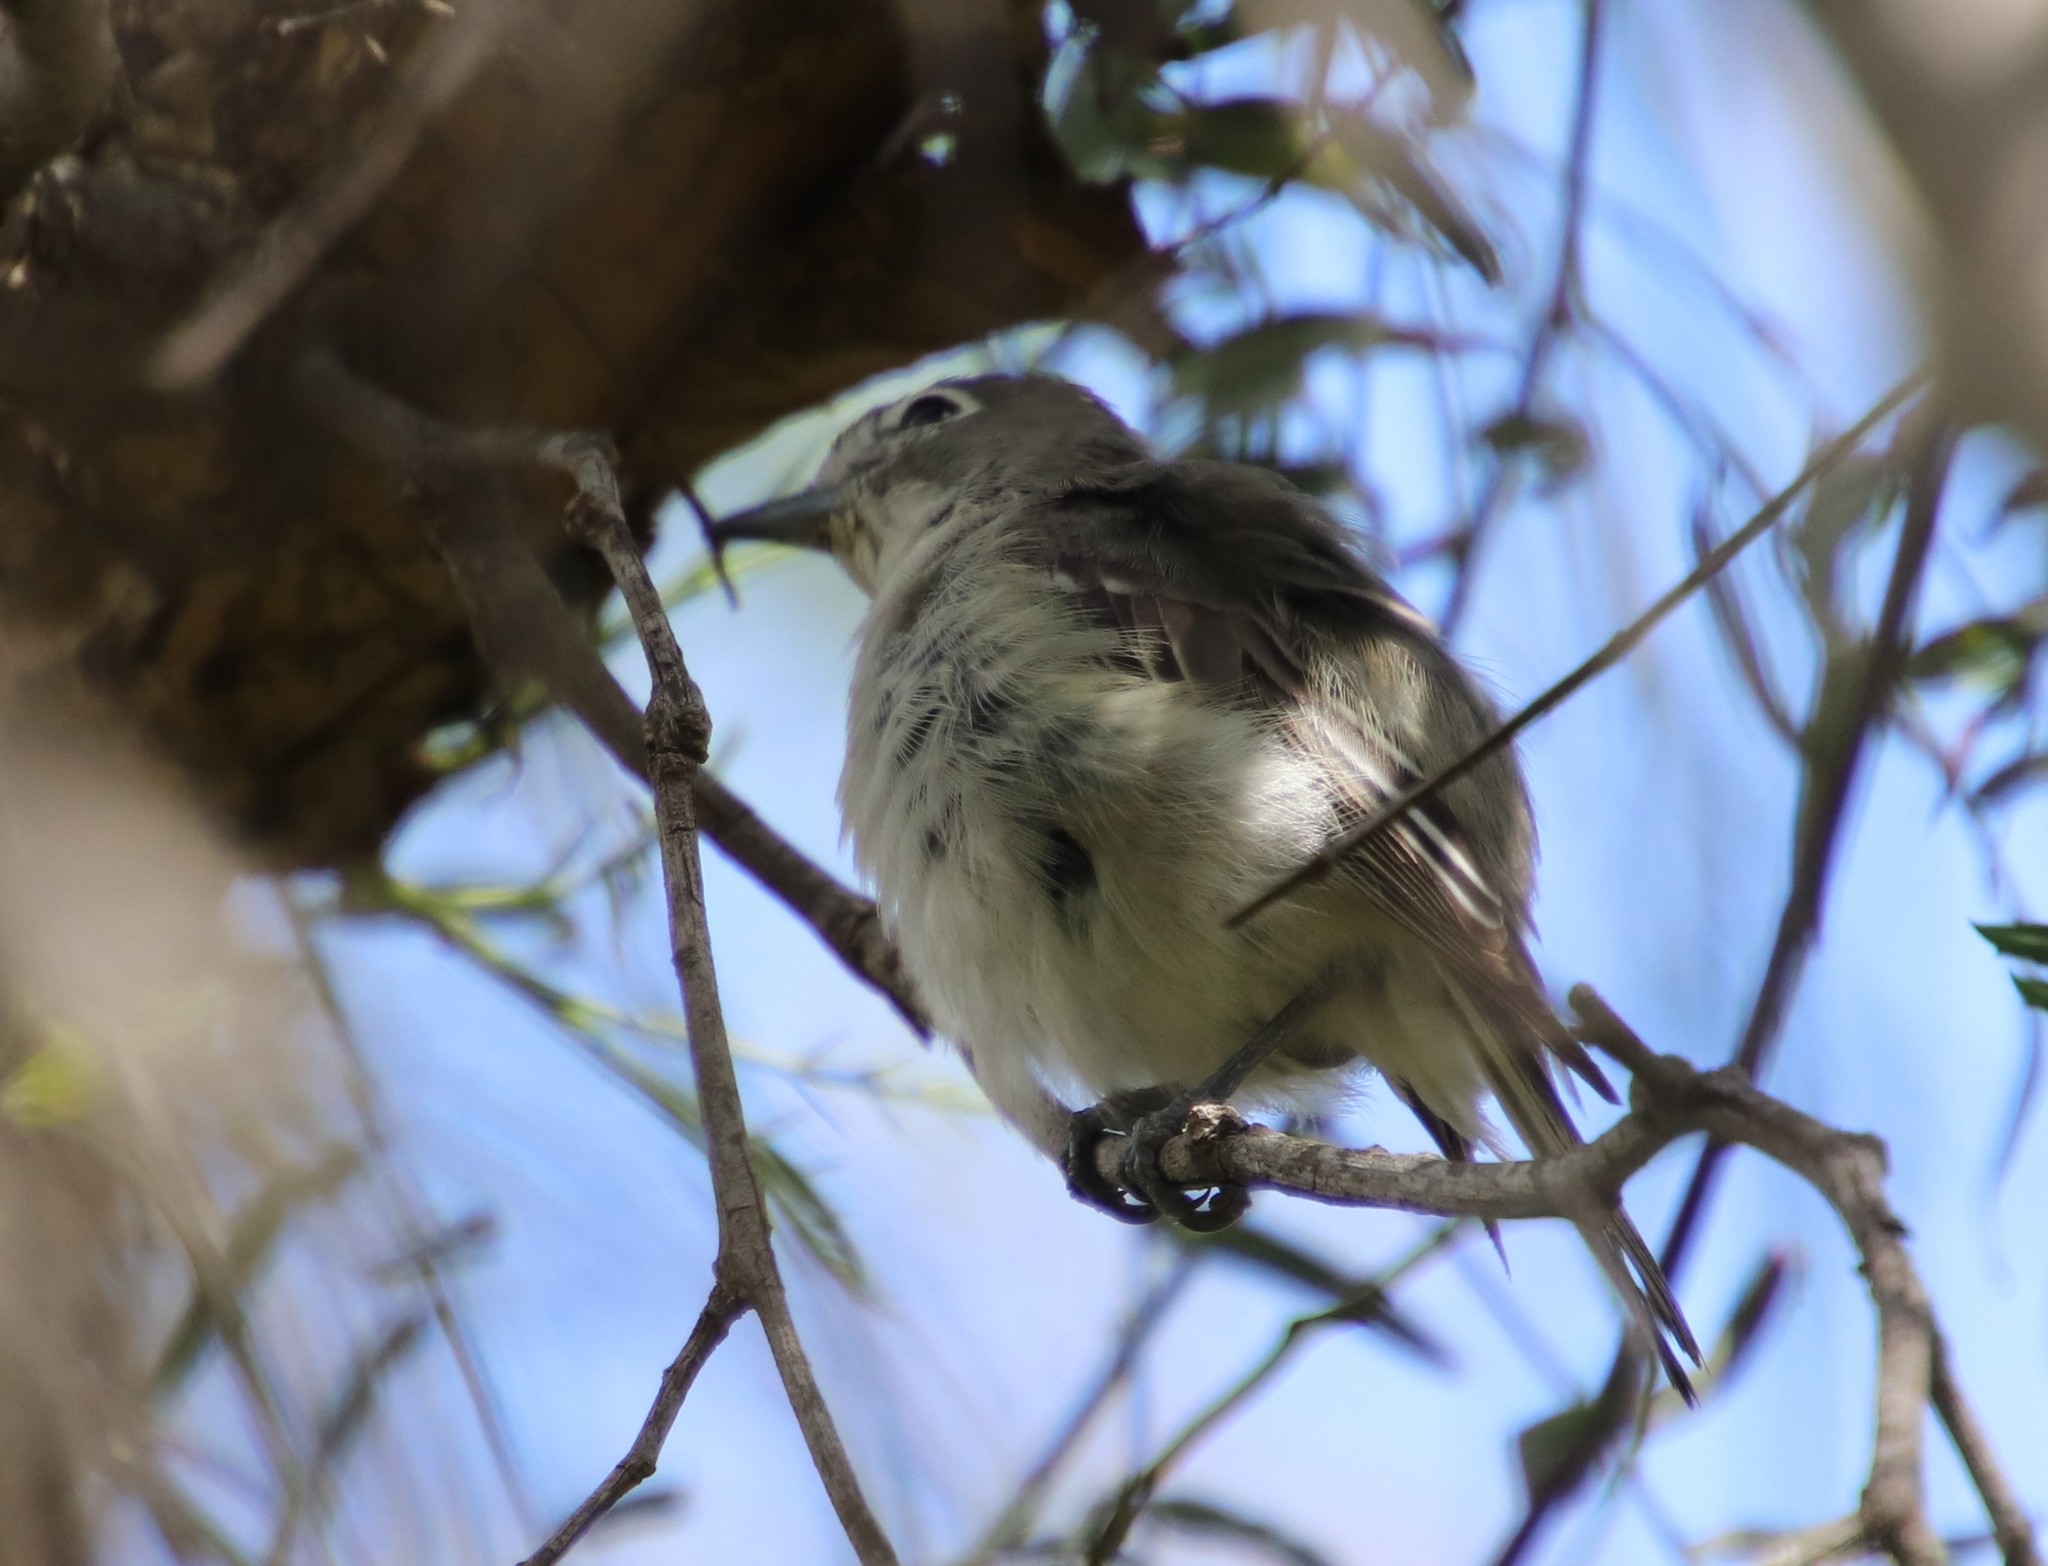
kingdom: Animalia
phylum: Chordata
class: Aves
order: Passeriformes
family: Vireonidae
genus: Vireo
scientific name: Vireo plumbeus
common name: Plumbeous vireo
